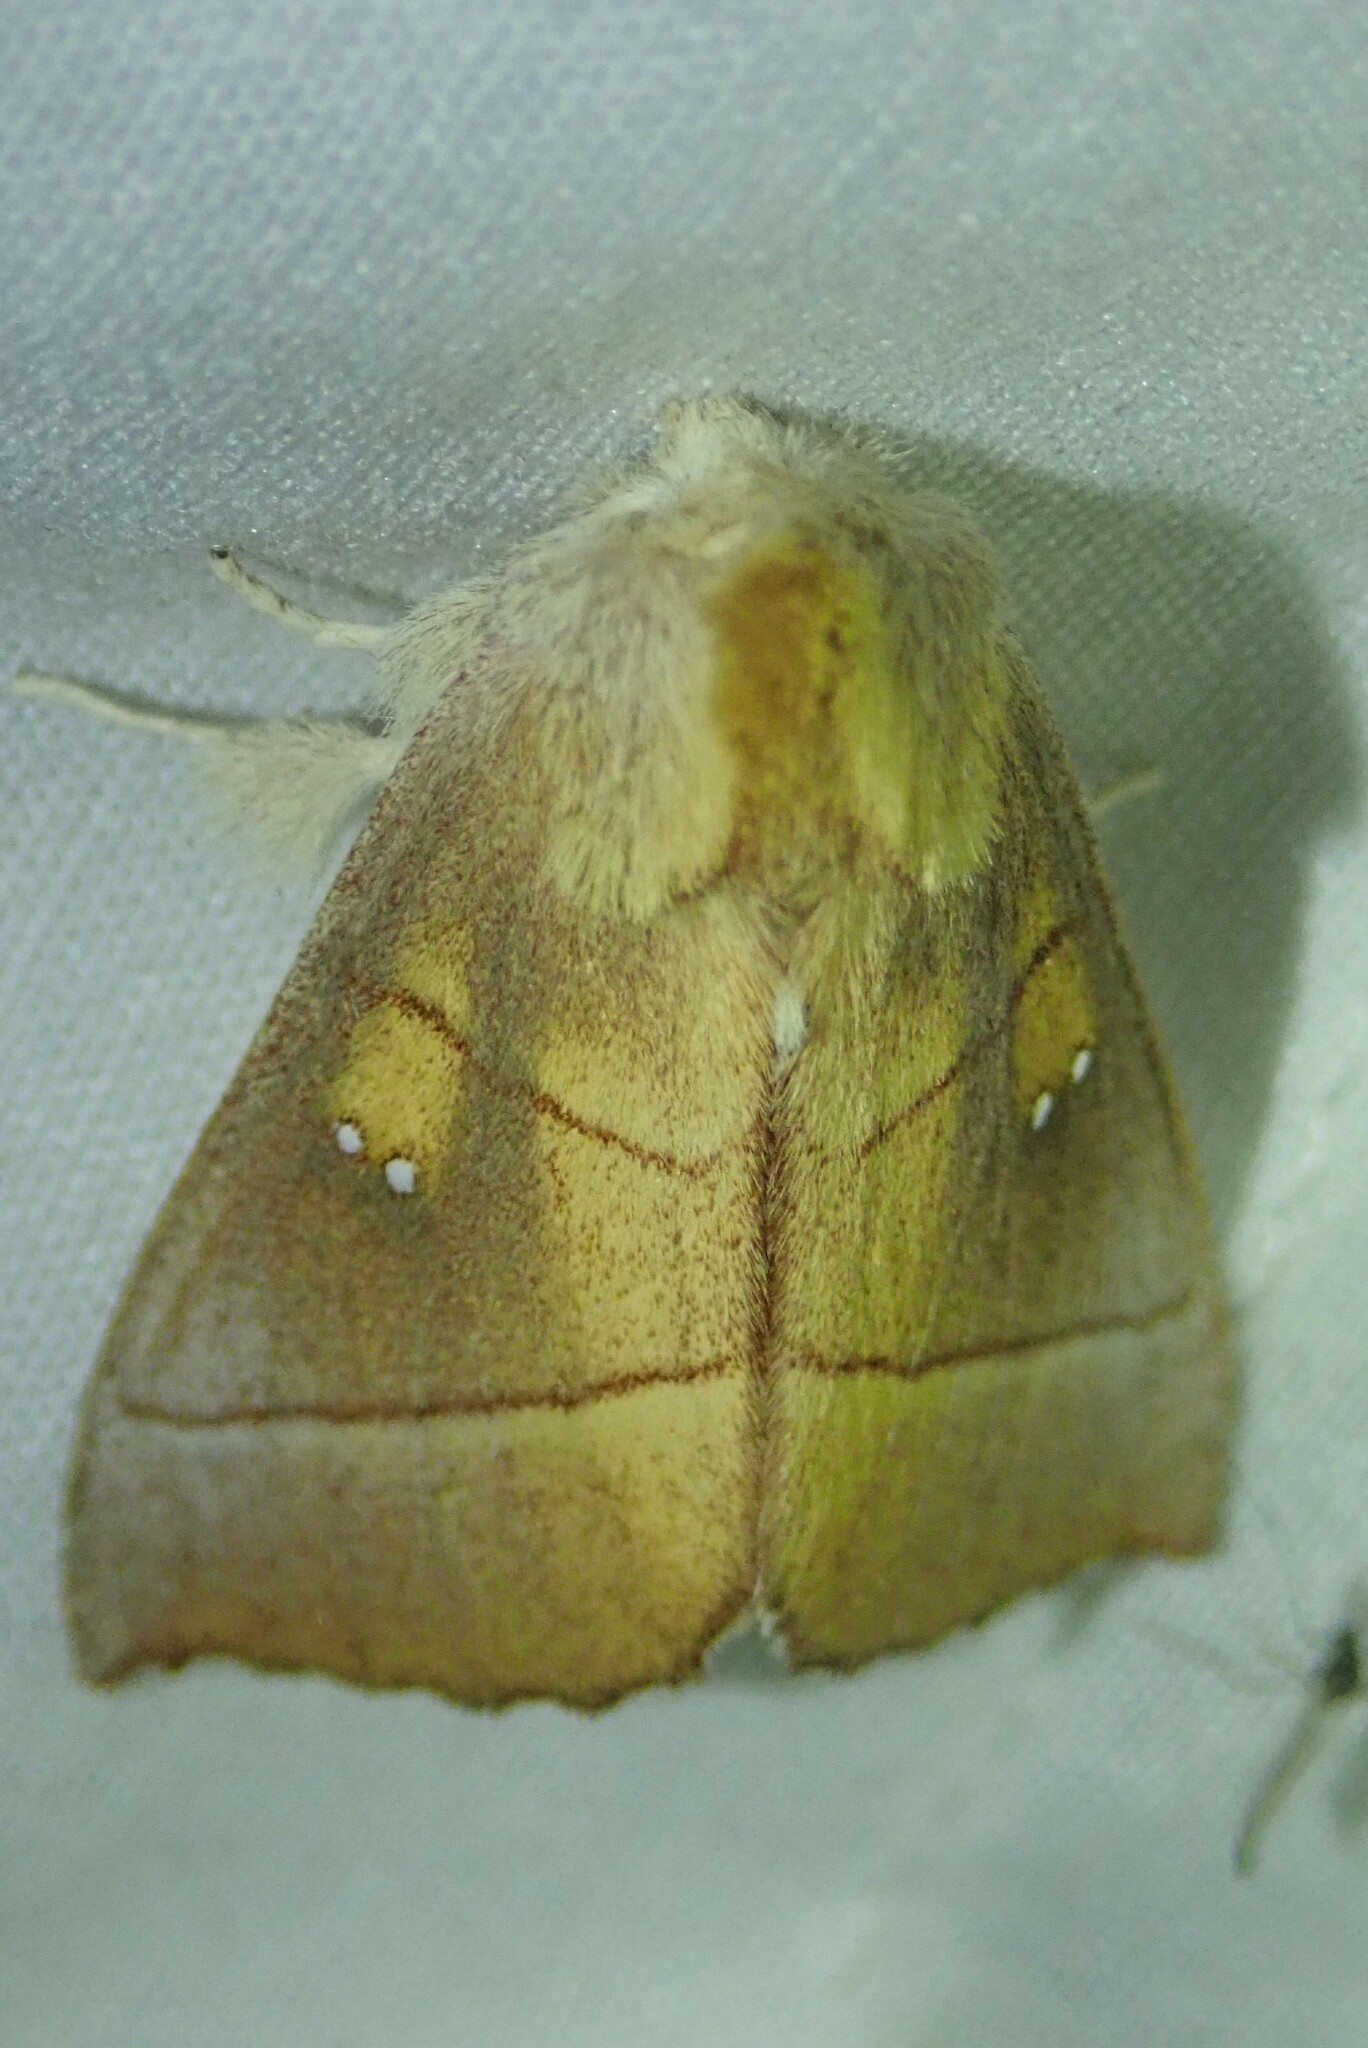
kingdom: Animalia
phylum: Arthropoda
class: Insecta
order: Lepidoptera
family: Notodontidae
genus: Nadata
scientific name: Nadata gibbosa
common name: White-dotted prominent
